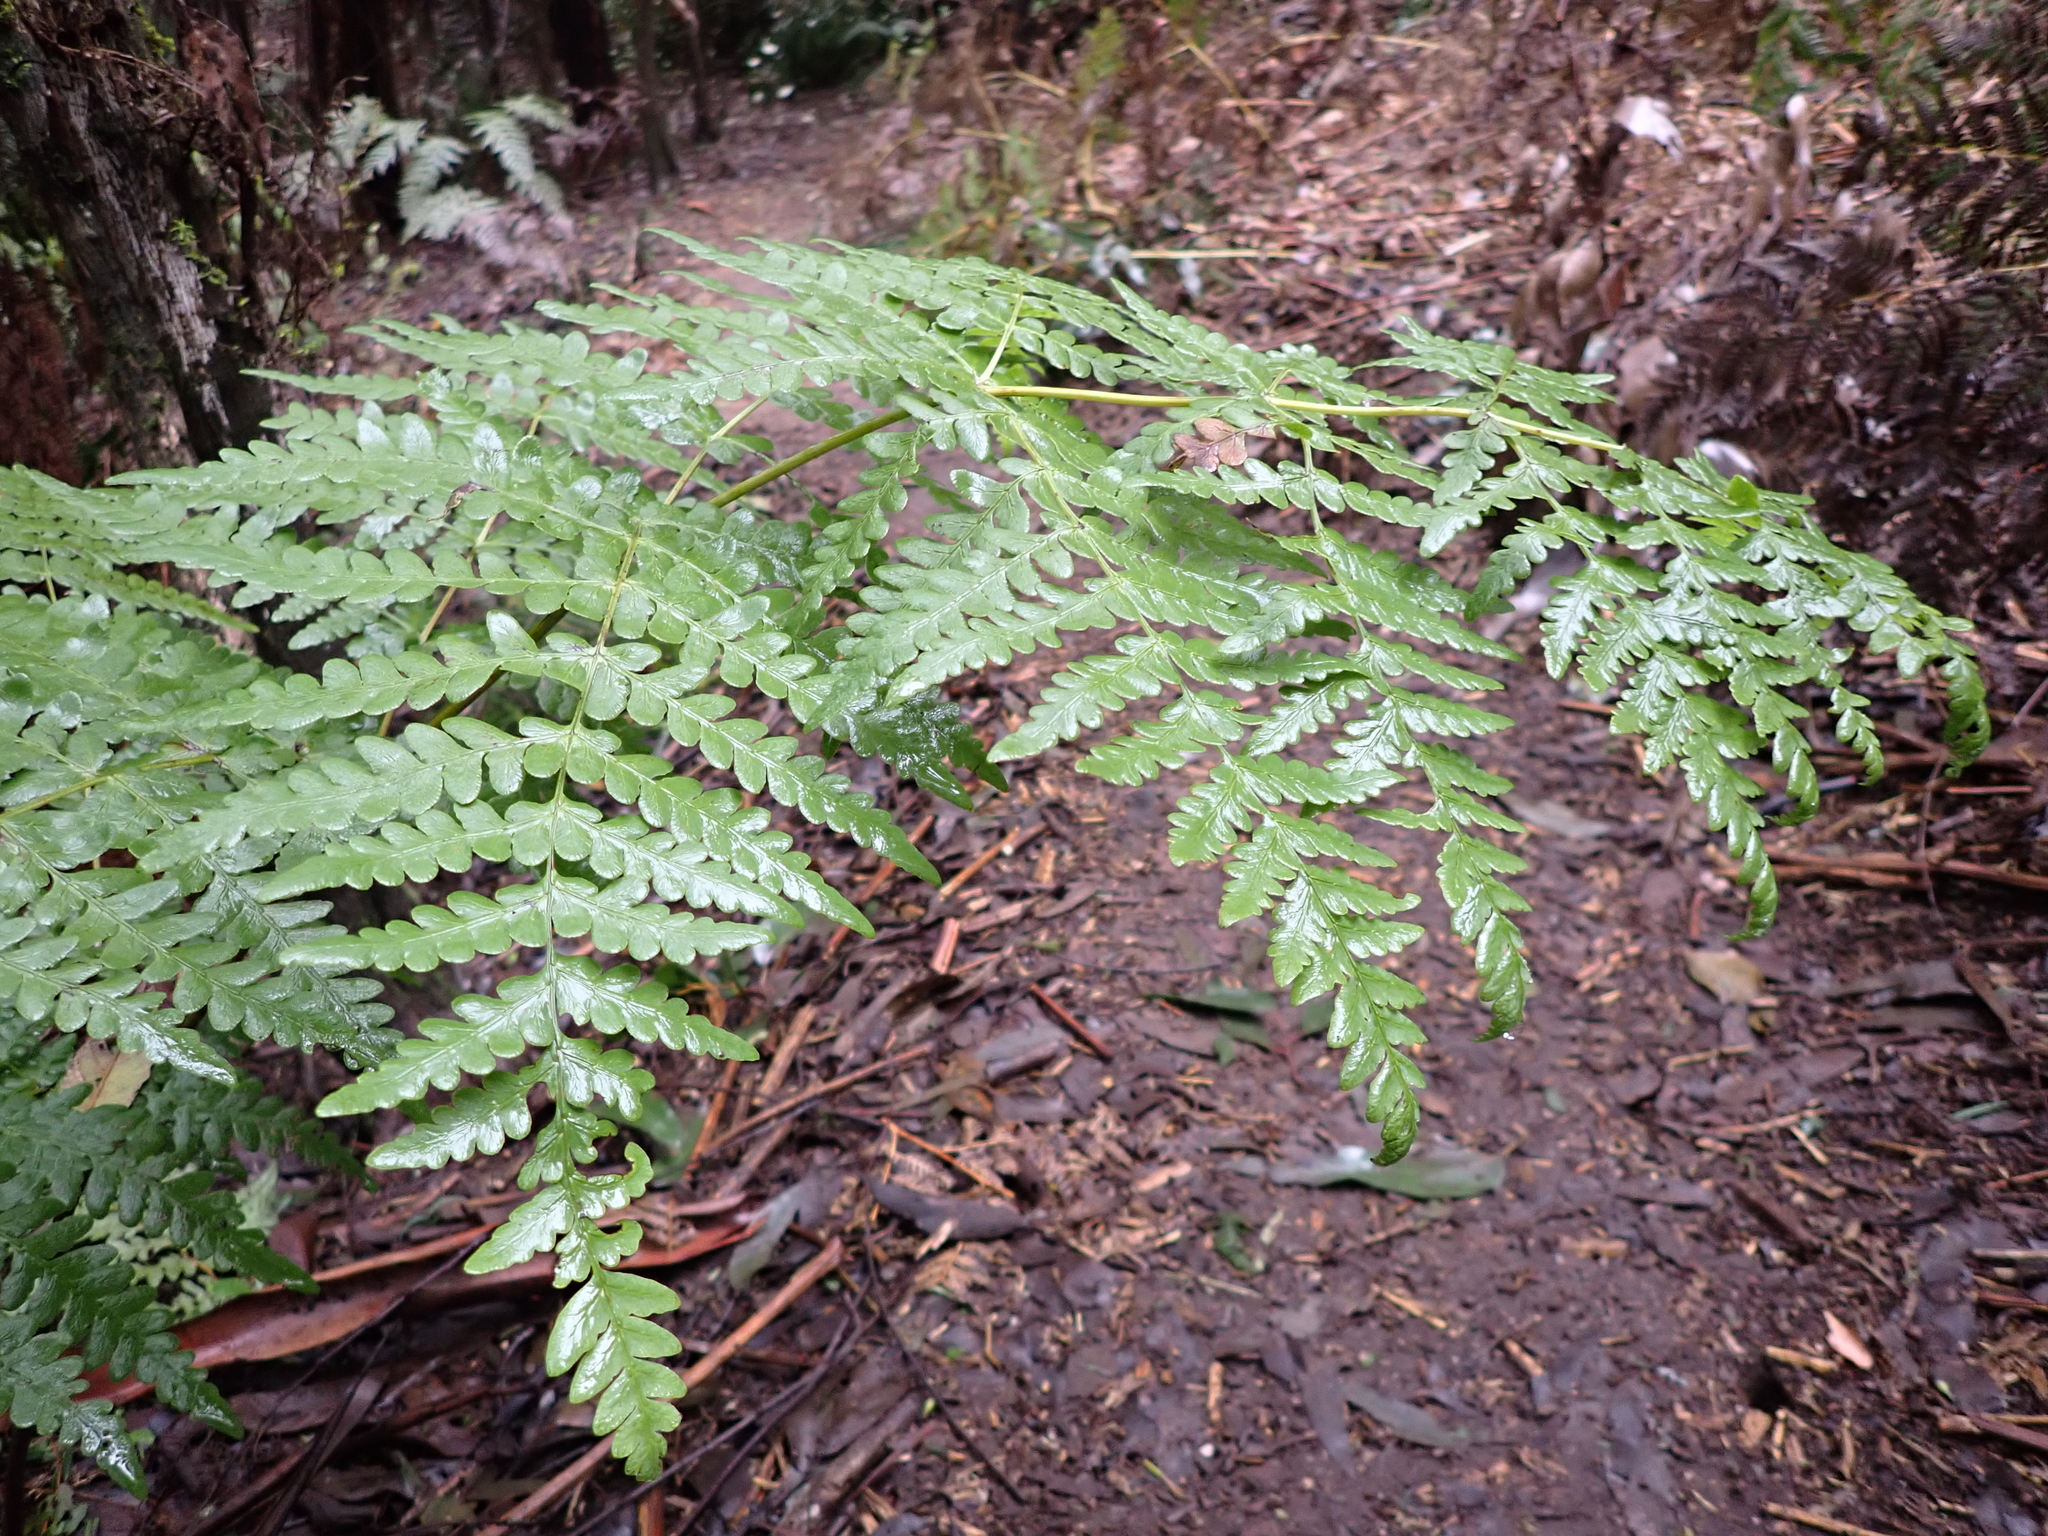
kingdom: Plantae
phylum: Tracheophyta
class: Polypodiopsida
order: Polypodiales
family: Dennstaedtiaceae
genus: Histiopteris
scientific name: Histiopteris incisa
